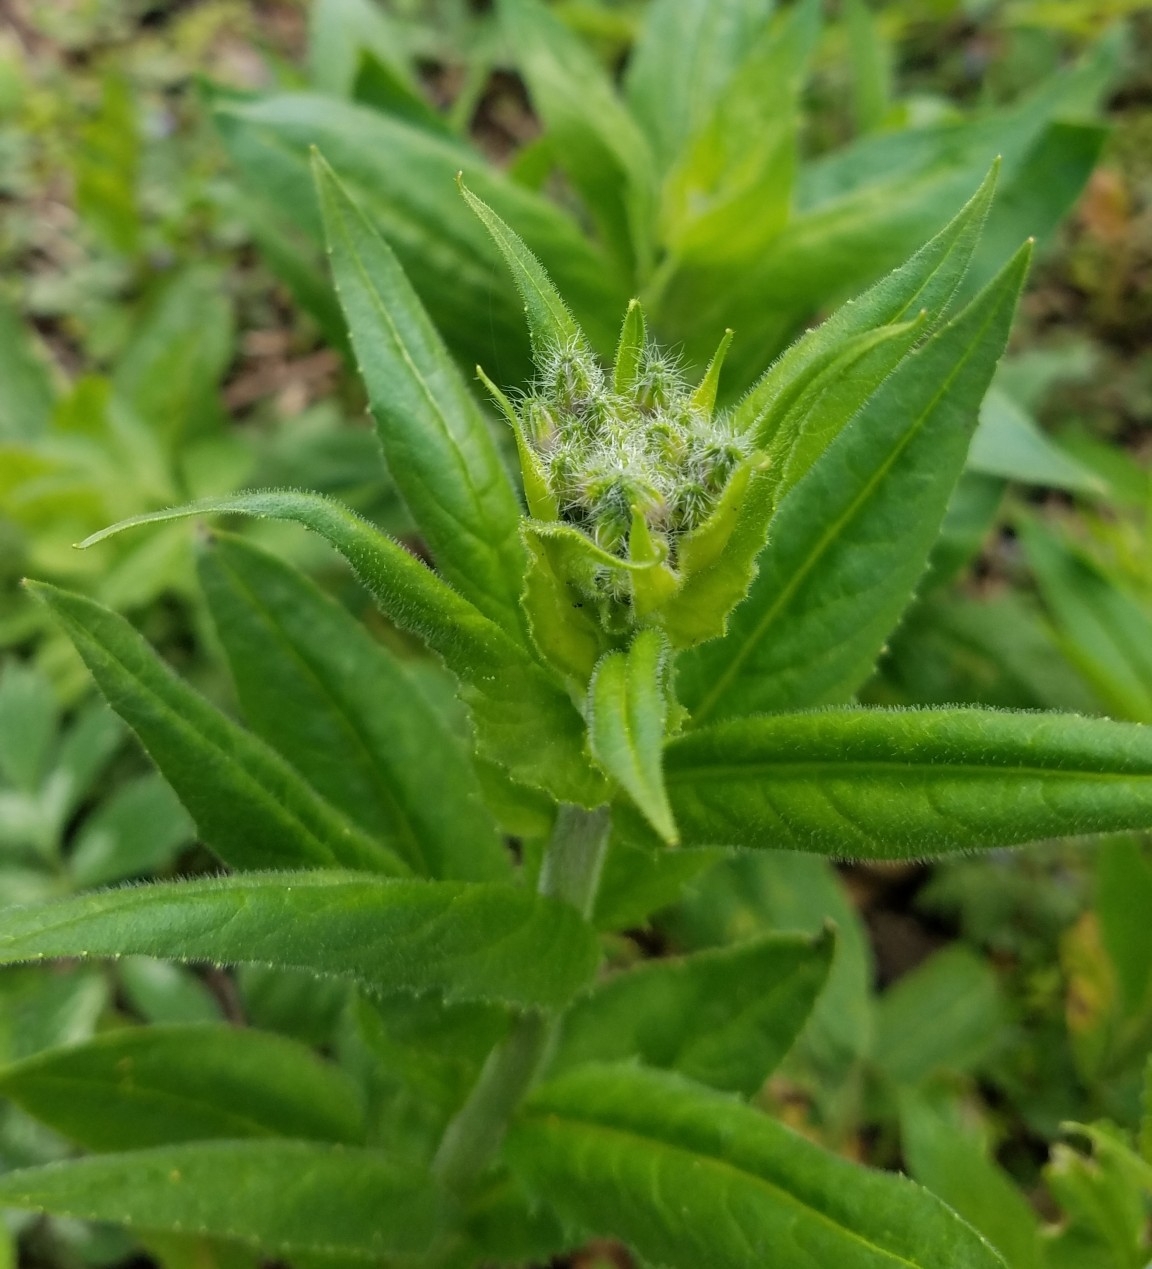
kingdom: Plantae
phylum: Tracheophyta
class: Magnoliopsida
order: Brassicales
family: Brassicaceae
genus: Hesperis
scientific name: Hesperis matronalis
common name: Dame's-violet
